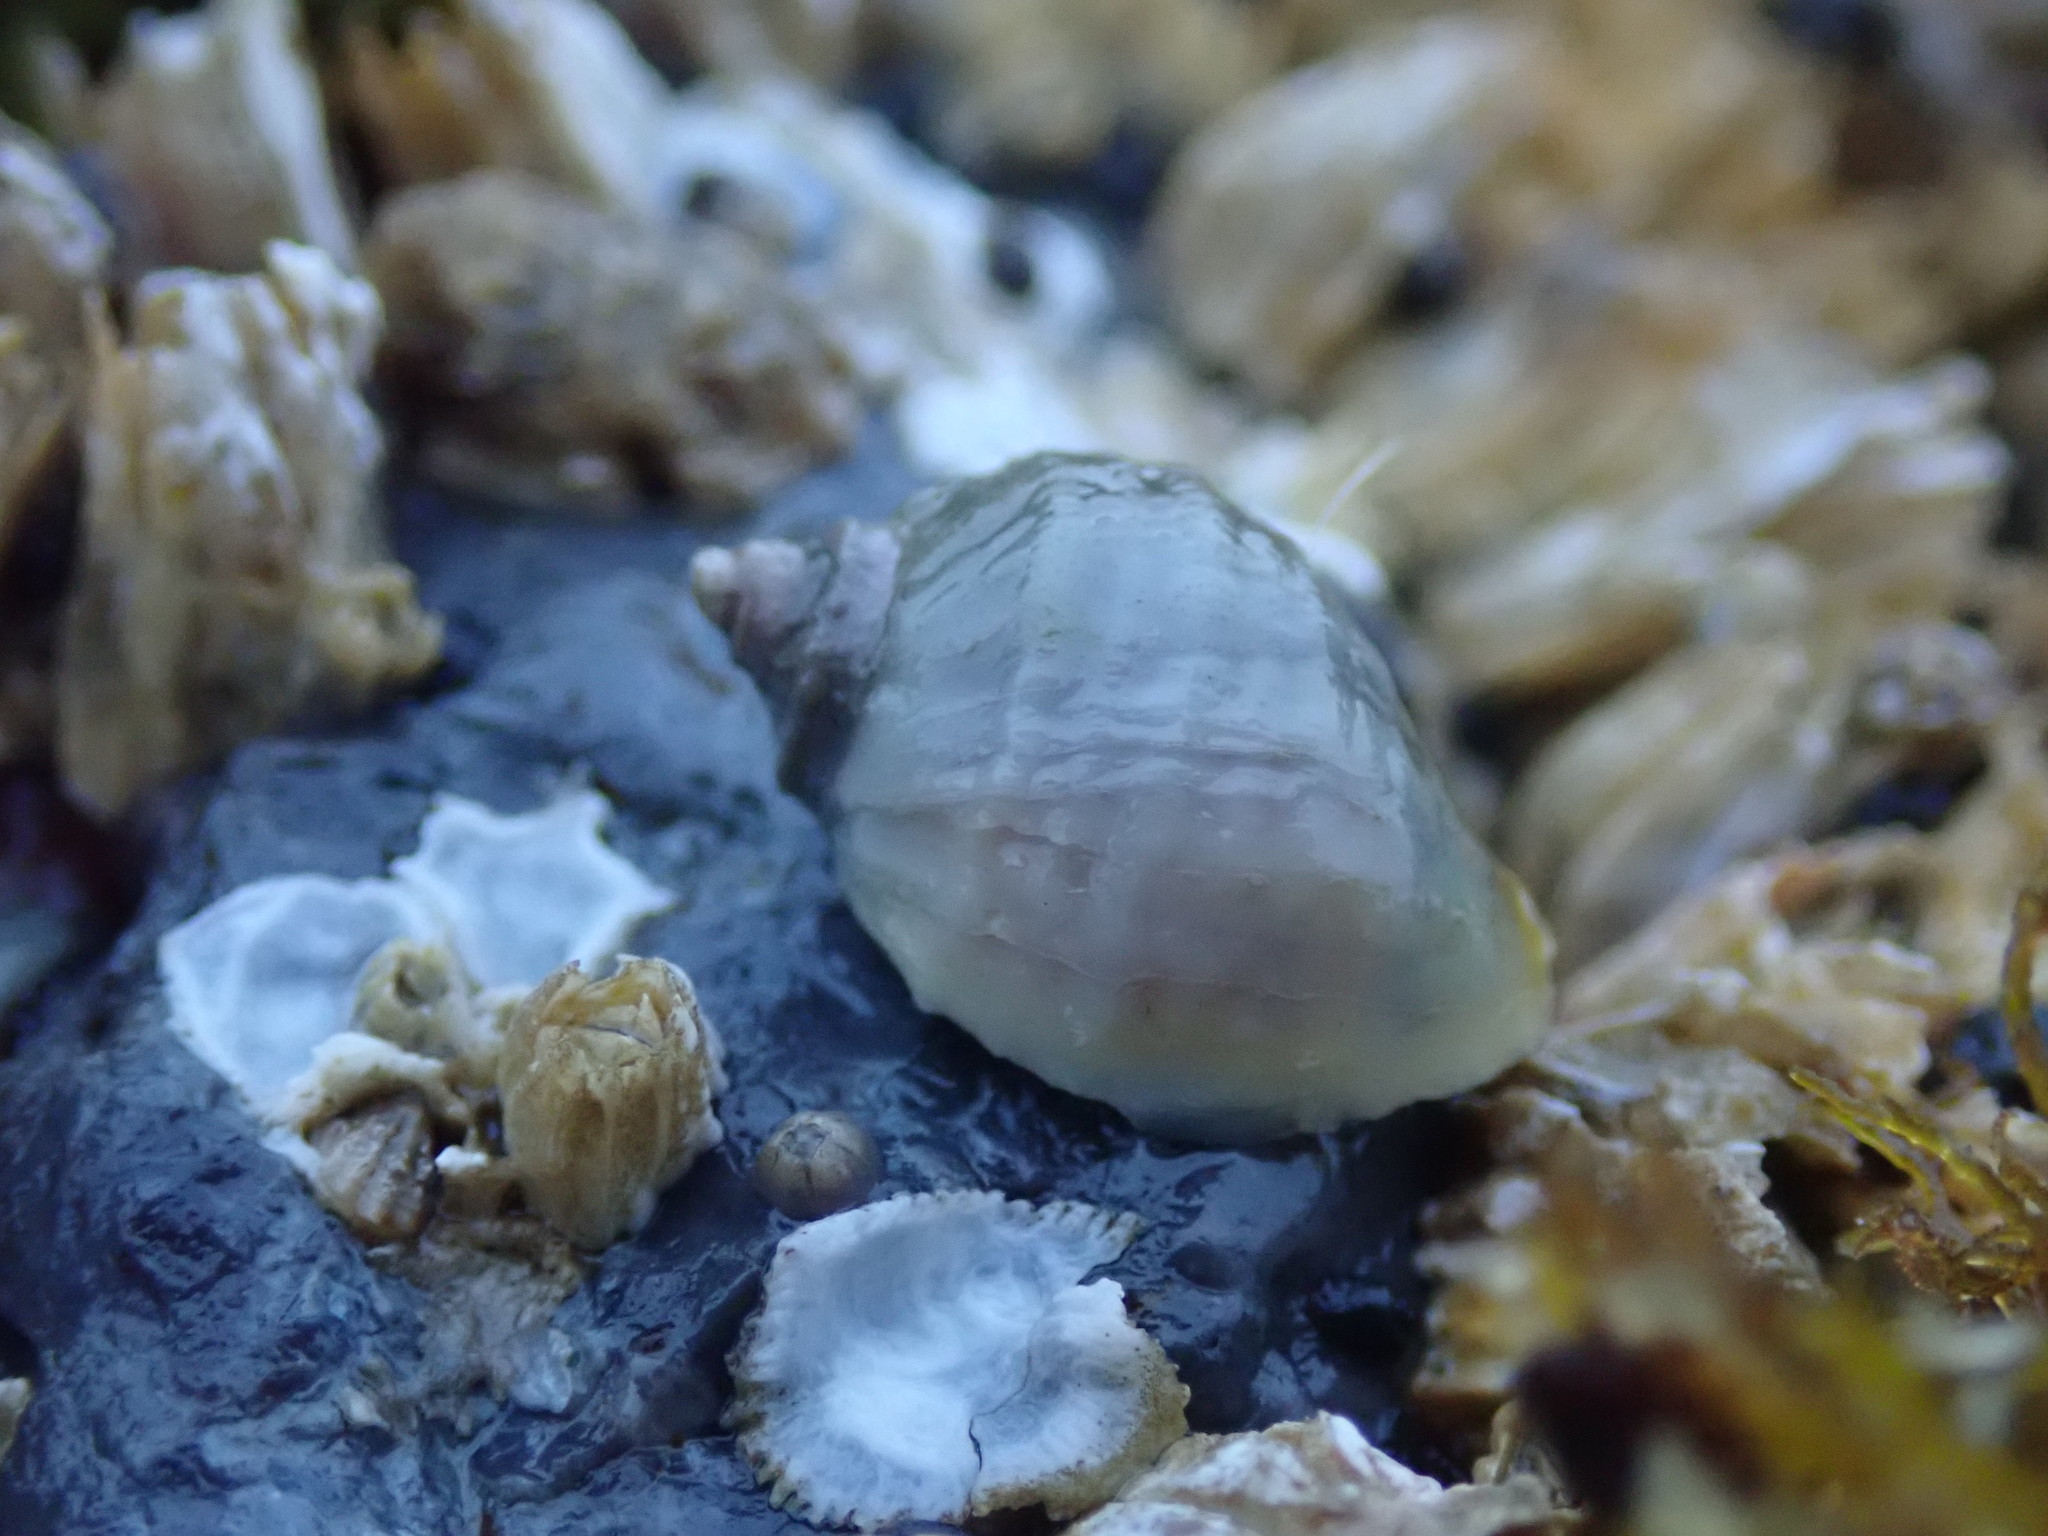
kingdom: Animalia
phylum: Mollusca
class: Gastropoda
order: Neogastropoda
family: Muricidae
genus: Nucella
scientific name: Nucella ostrina
